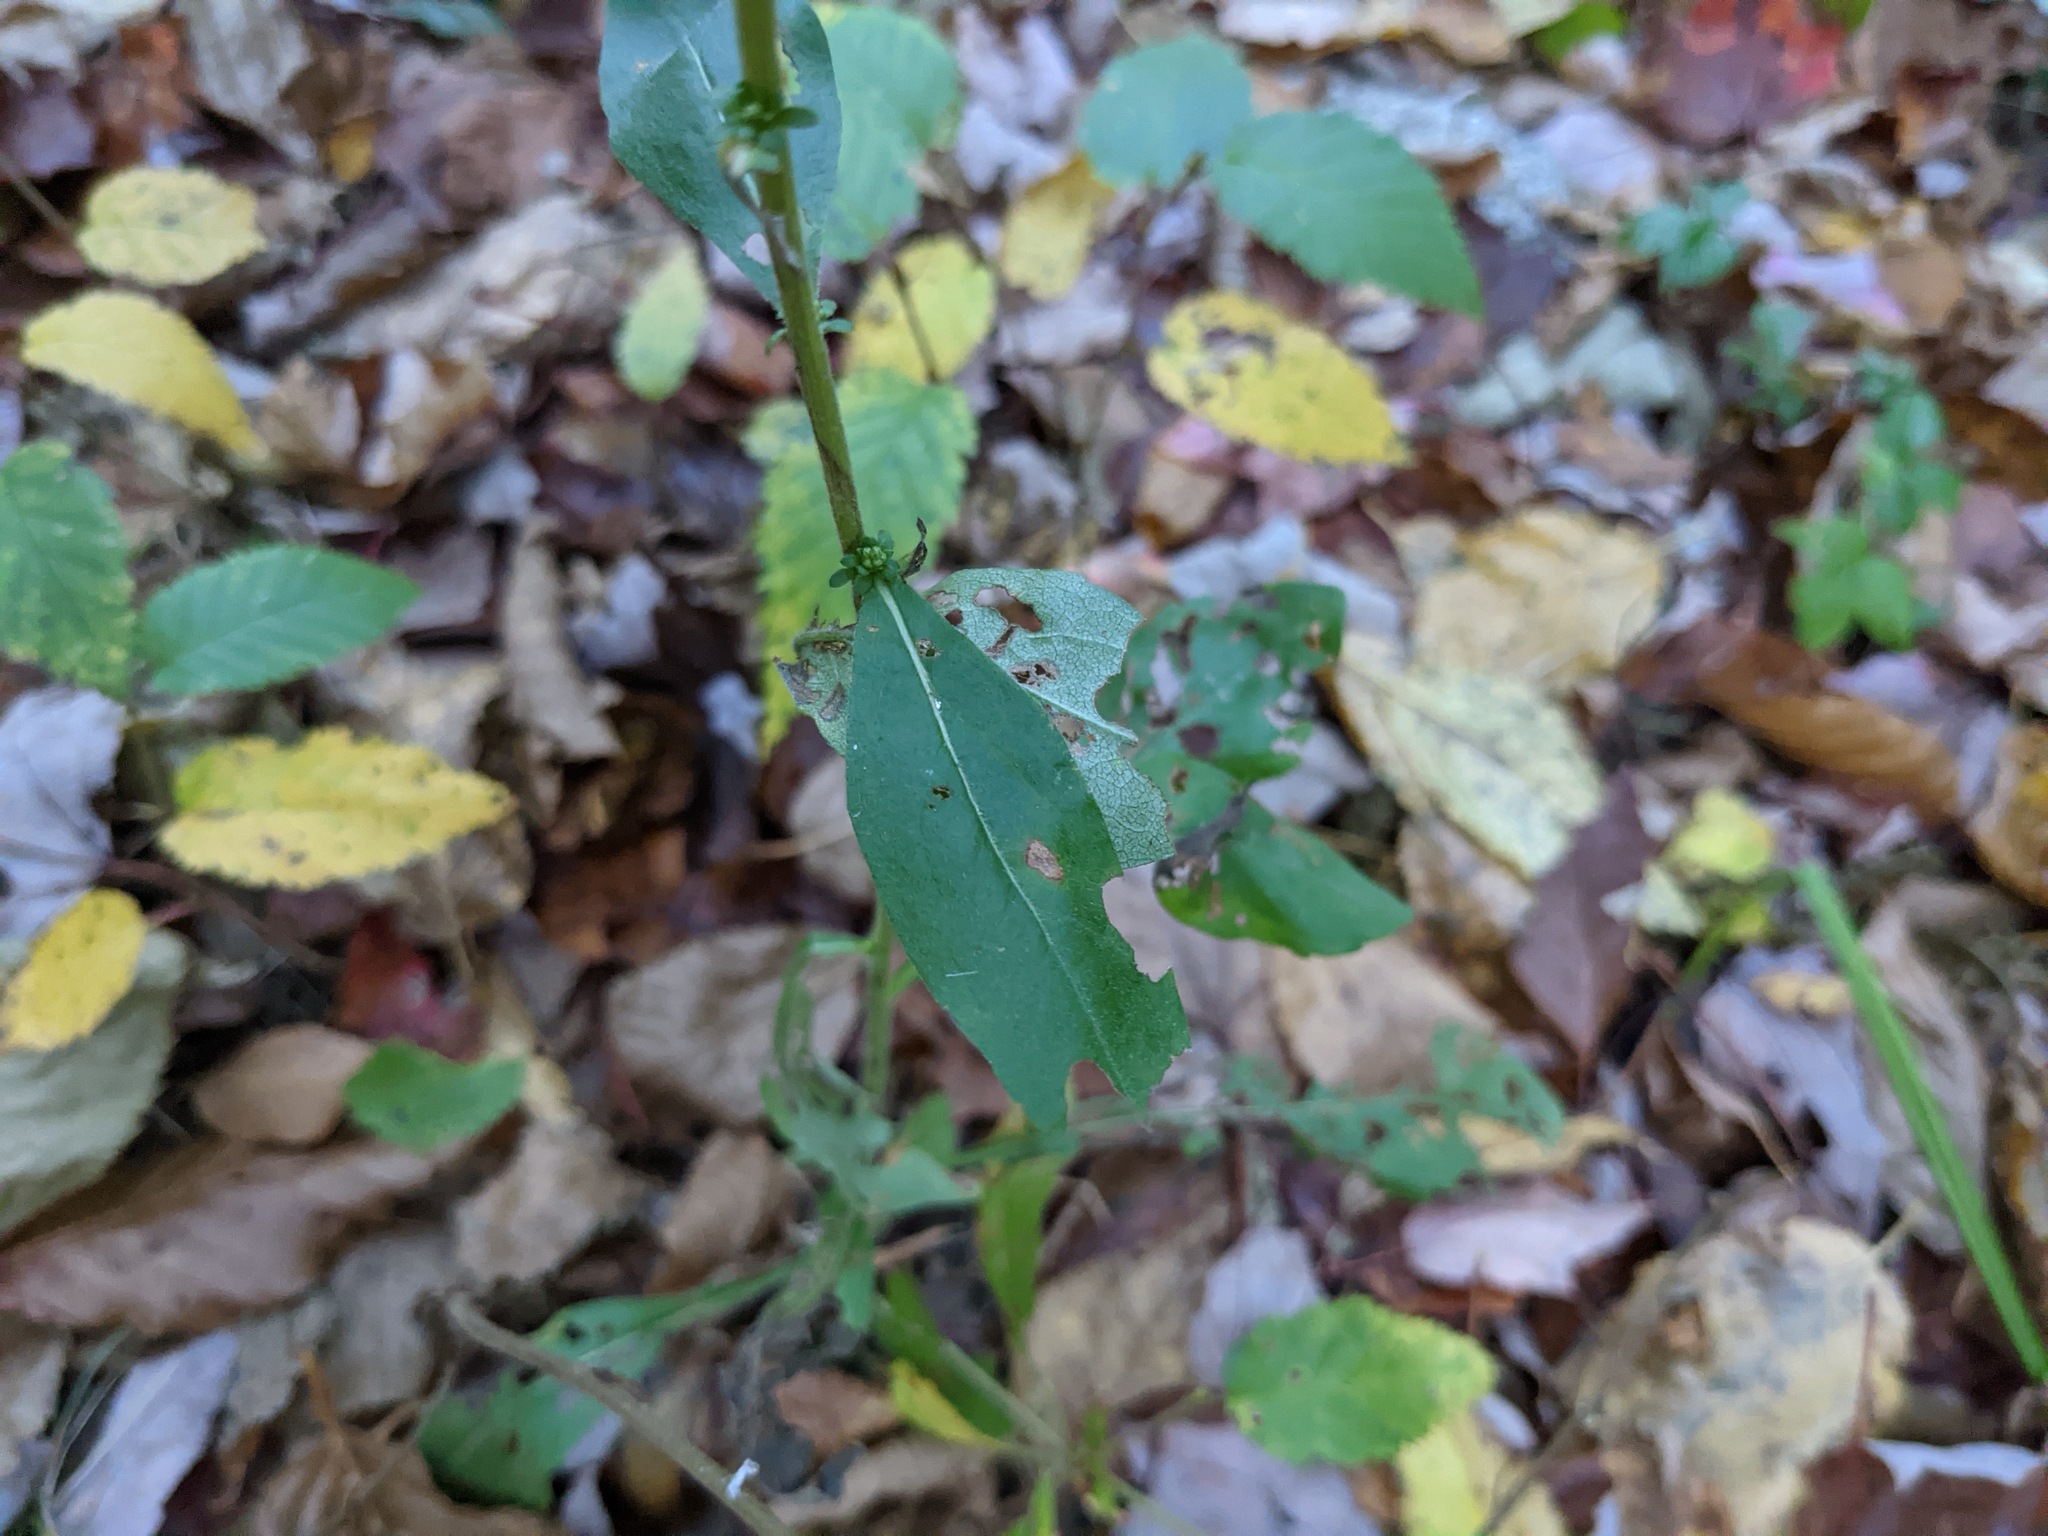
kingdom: Plantae
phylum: Tracheophyta
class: Magnoliopsida
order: Asterales
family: Asteraceae
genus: Solidago
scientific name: Solidago bicolor
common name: Silverrod
